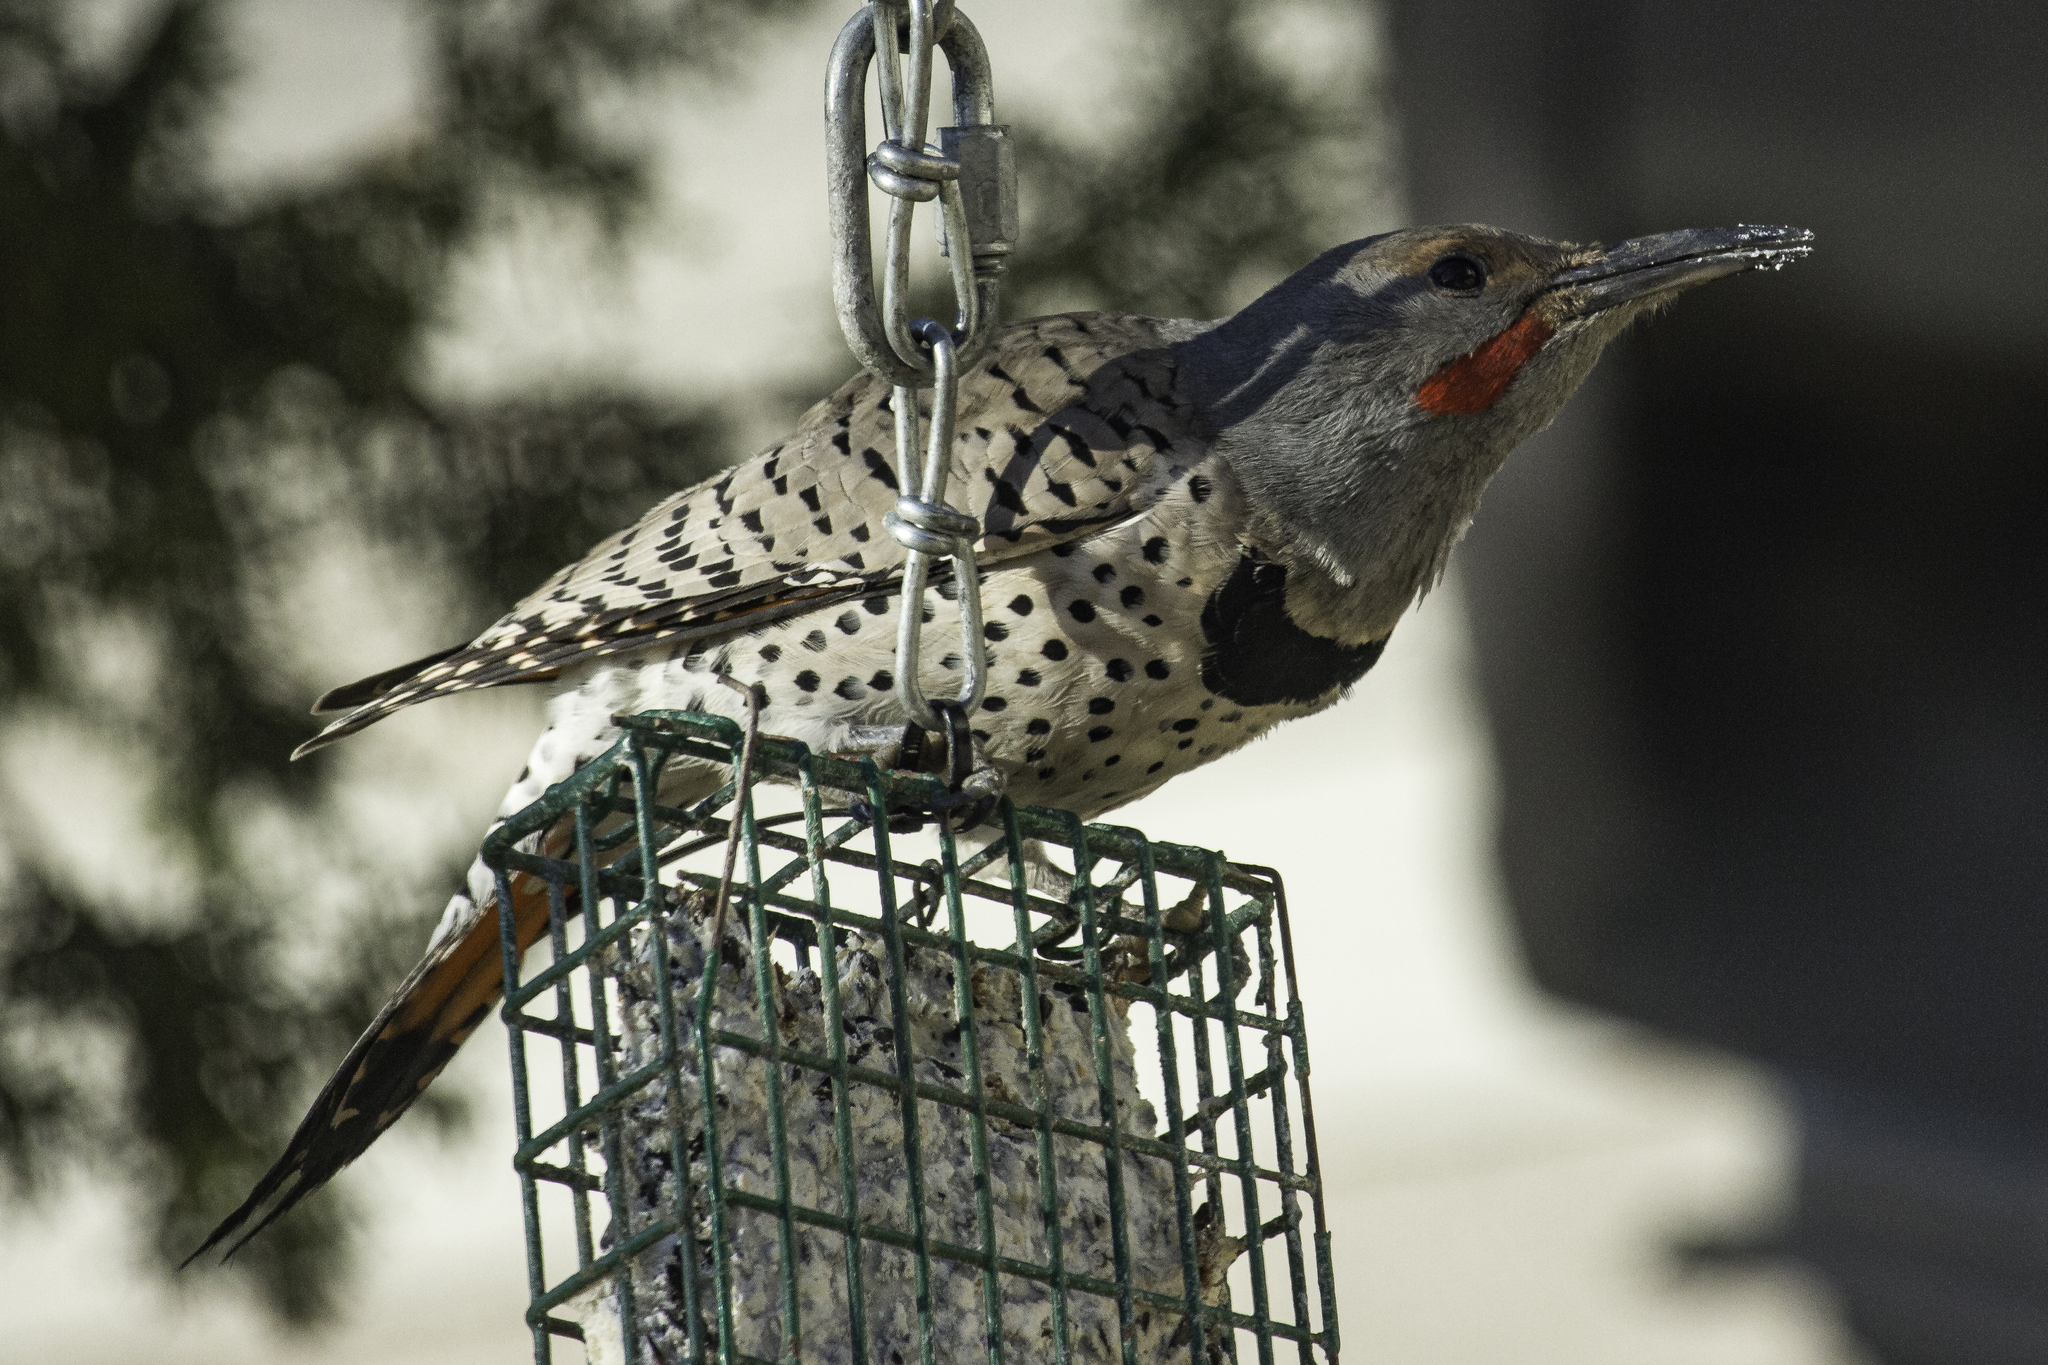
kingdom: Animalia
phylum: Chordata
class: Aves
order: Piciformes
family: Picidae
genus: Colaptes
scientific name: Colaptes auratus
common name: Northern flicker
